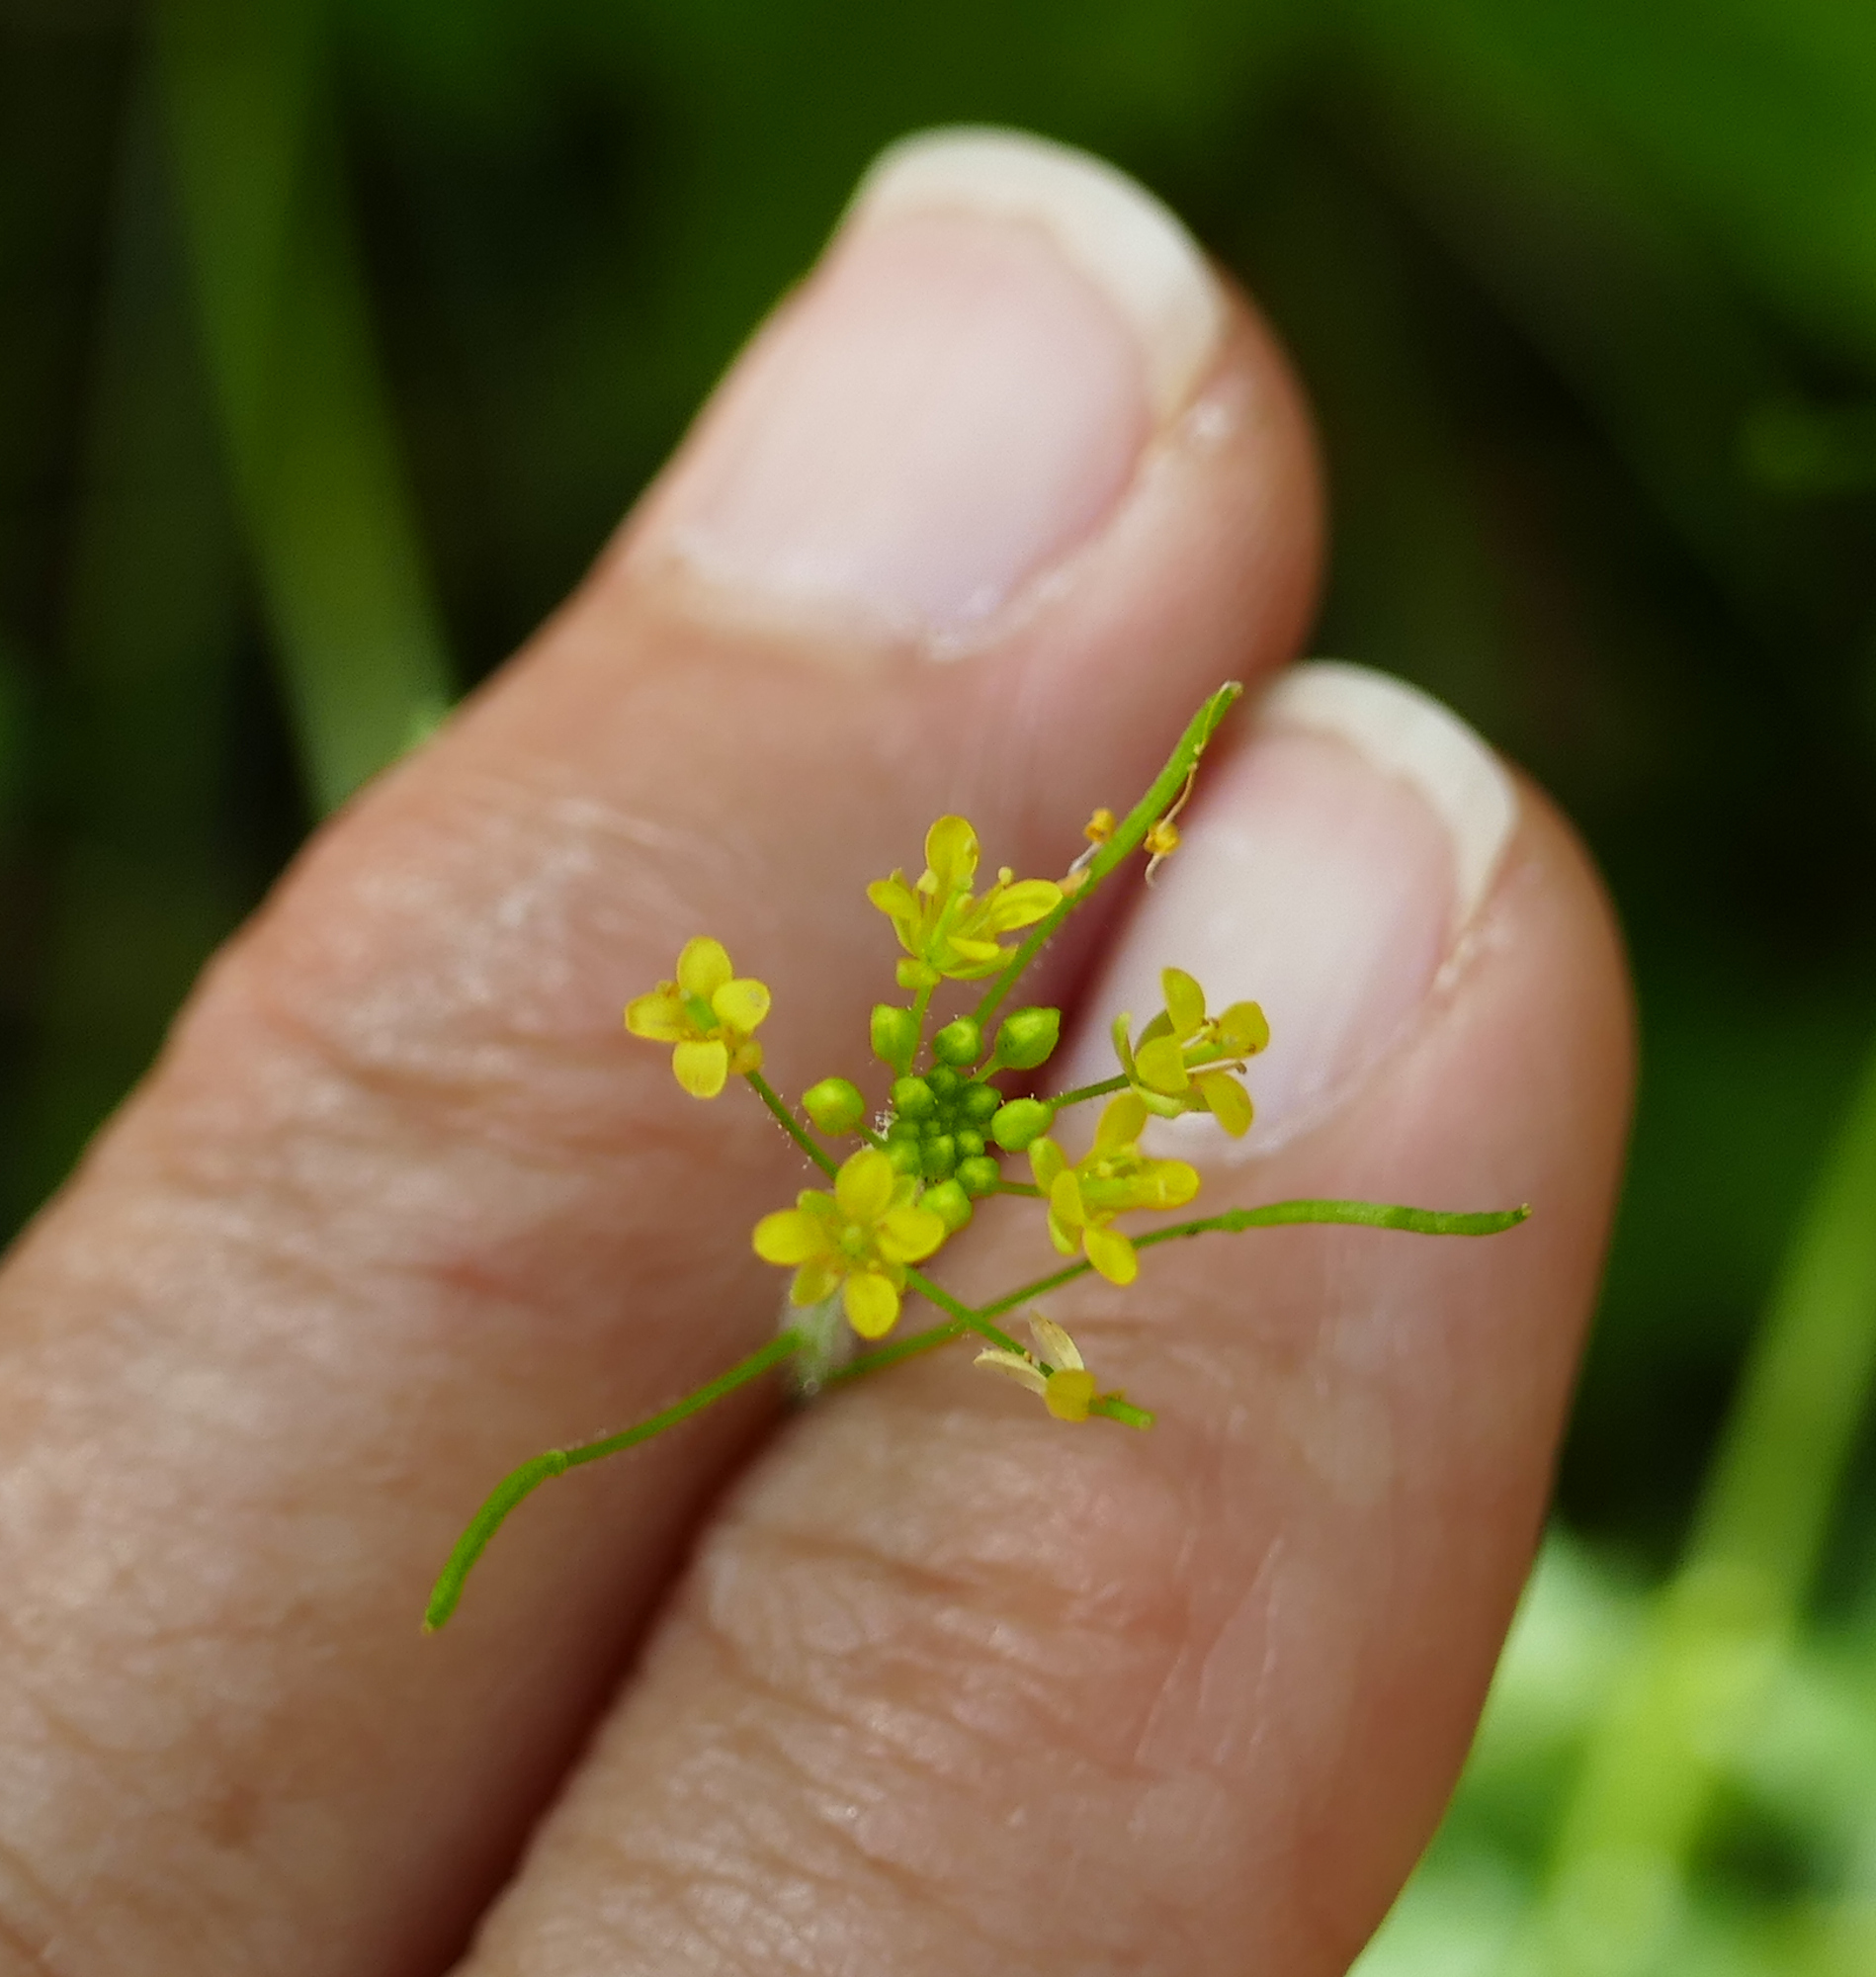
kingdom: Plantae
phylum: Tracheophyta
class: Magnoliopsida
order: Brassicales
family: Brassicaceae
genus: Descurainia
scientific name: Descurainia adenophora
